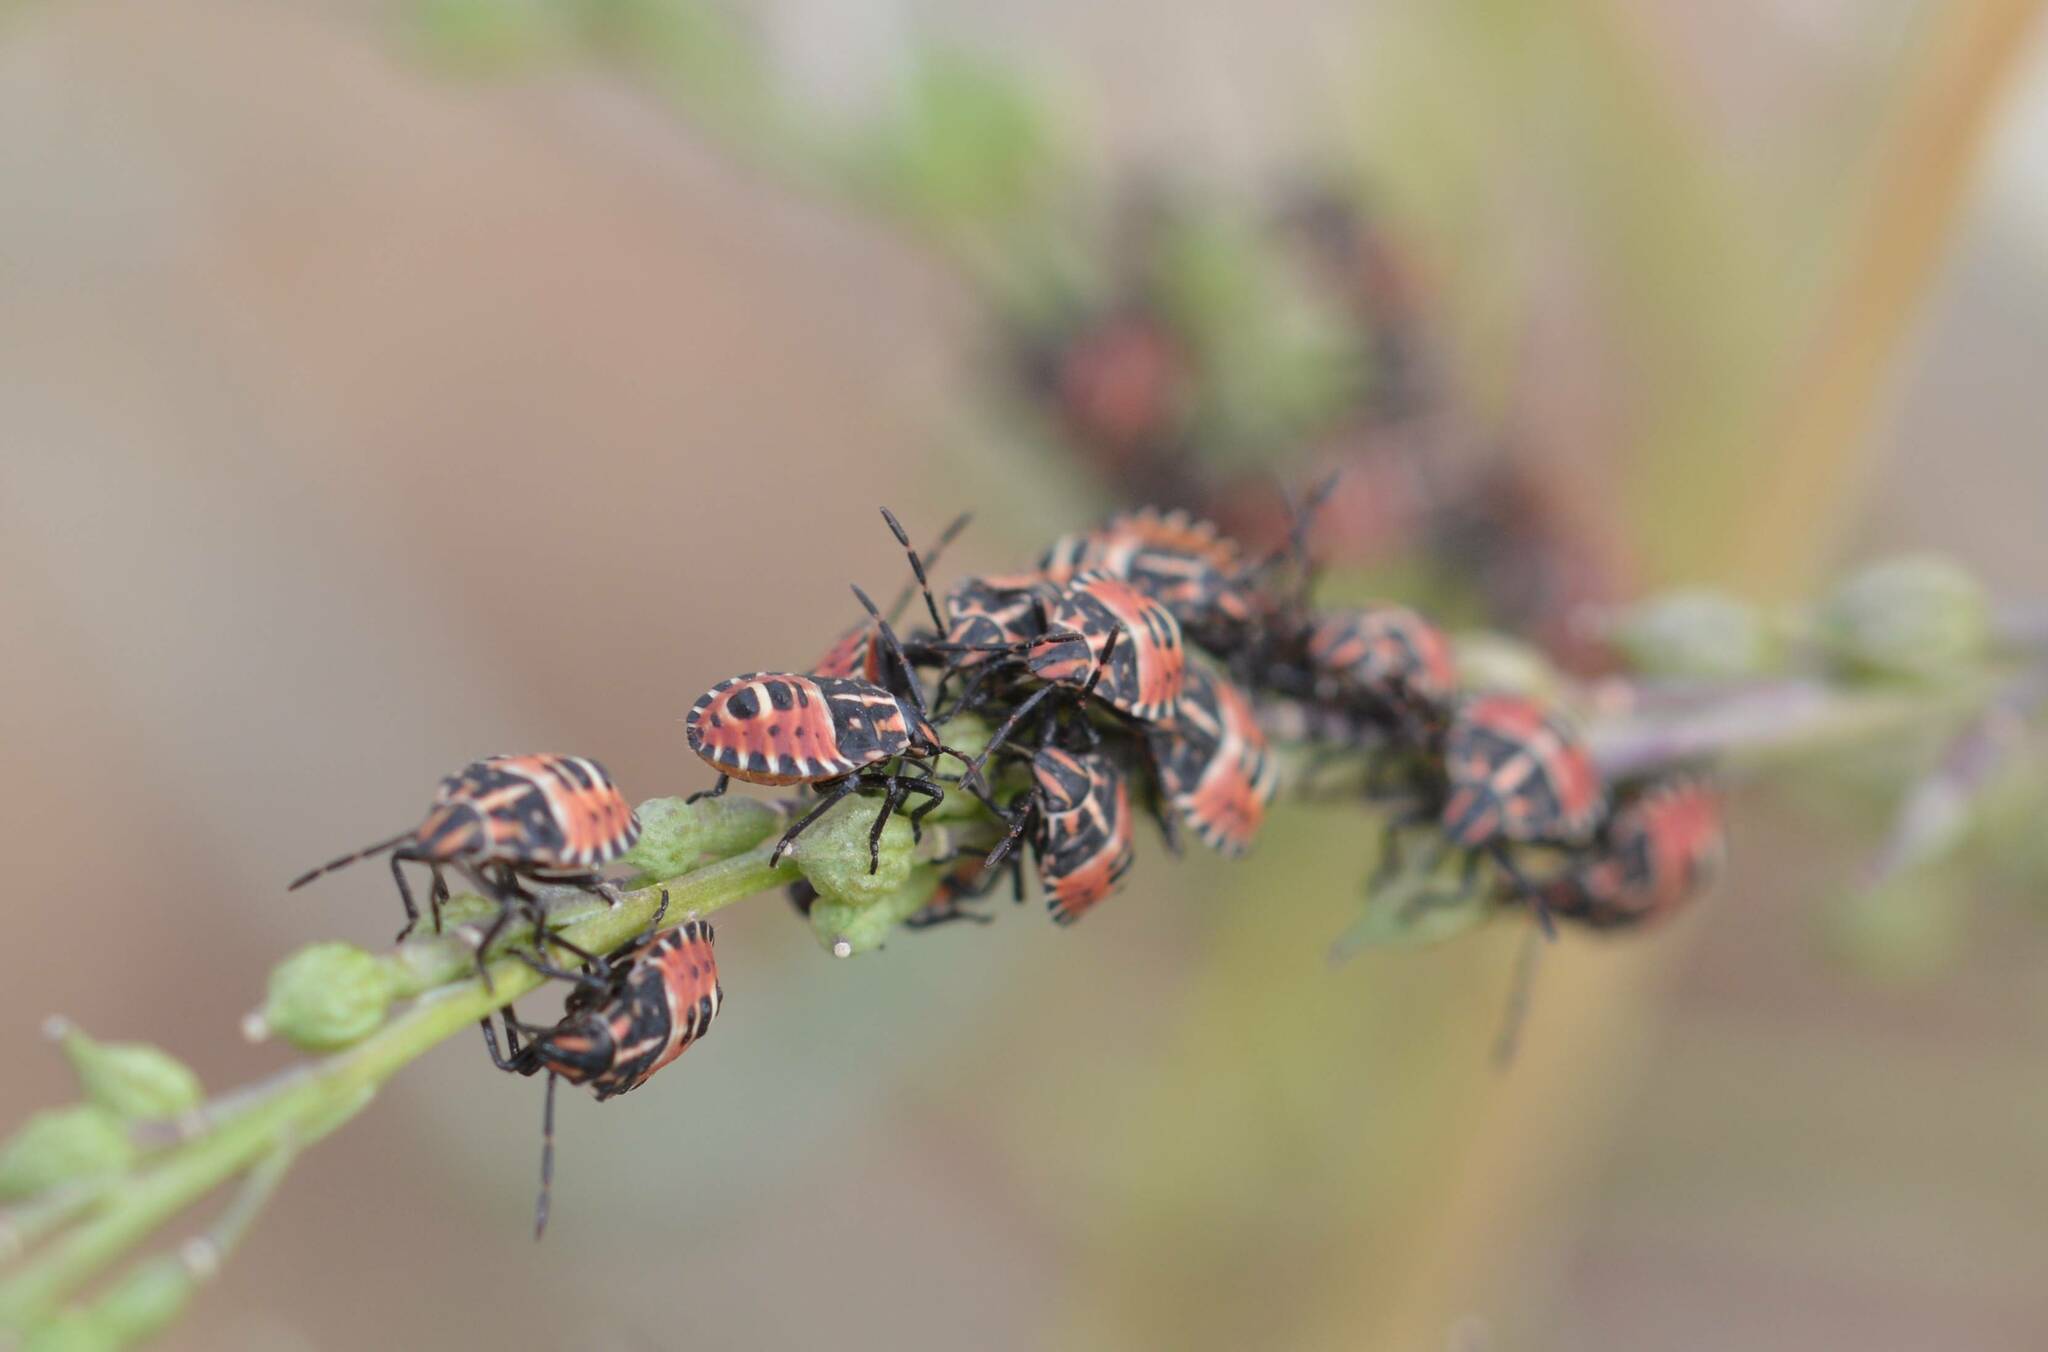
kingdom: Animalia
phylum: Arthropoda
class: Insecta
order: Hemiptera
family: Miridae
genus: Orthops
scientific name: Orthops kalmii
